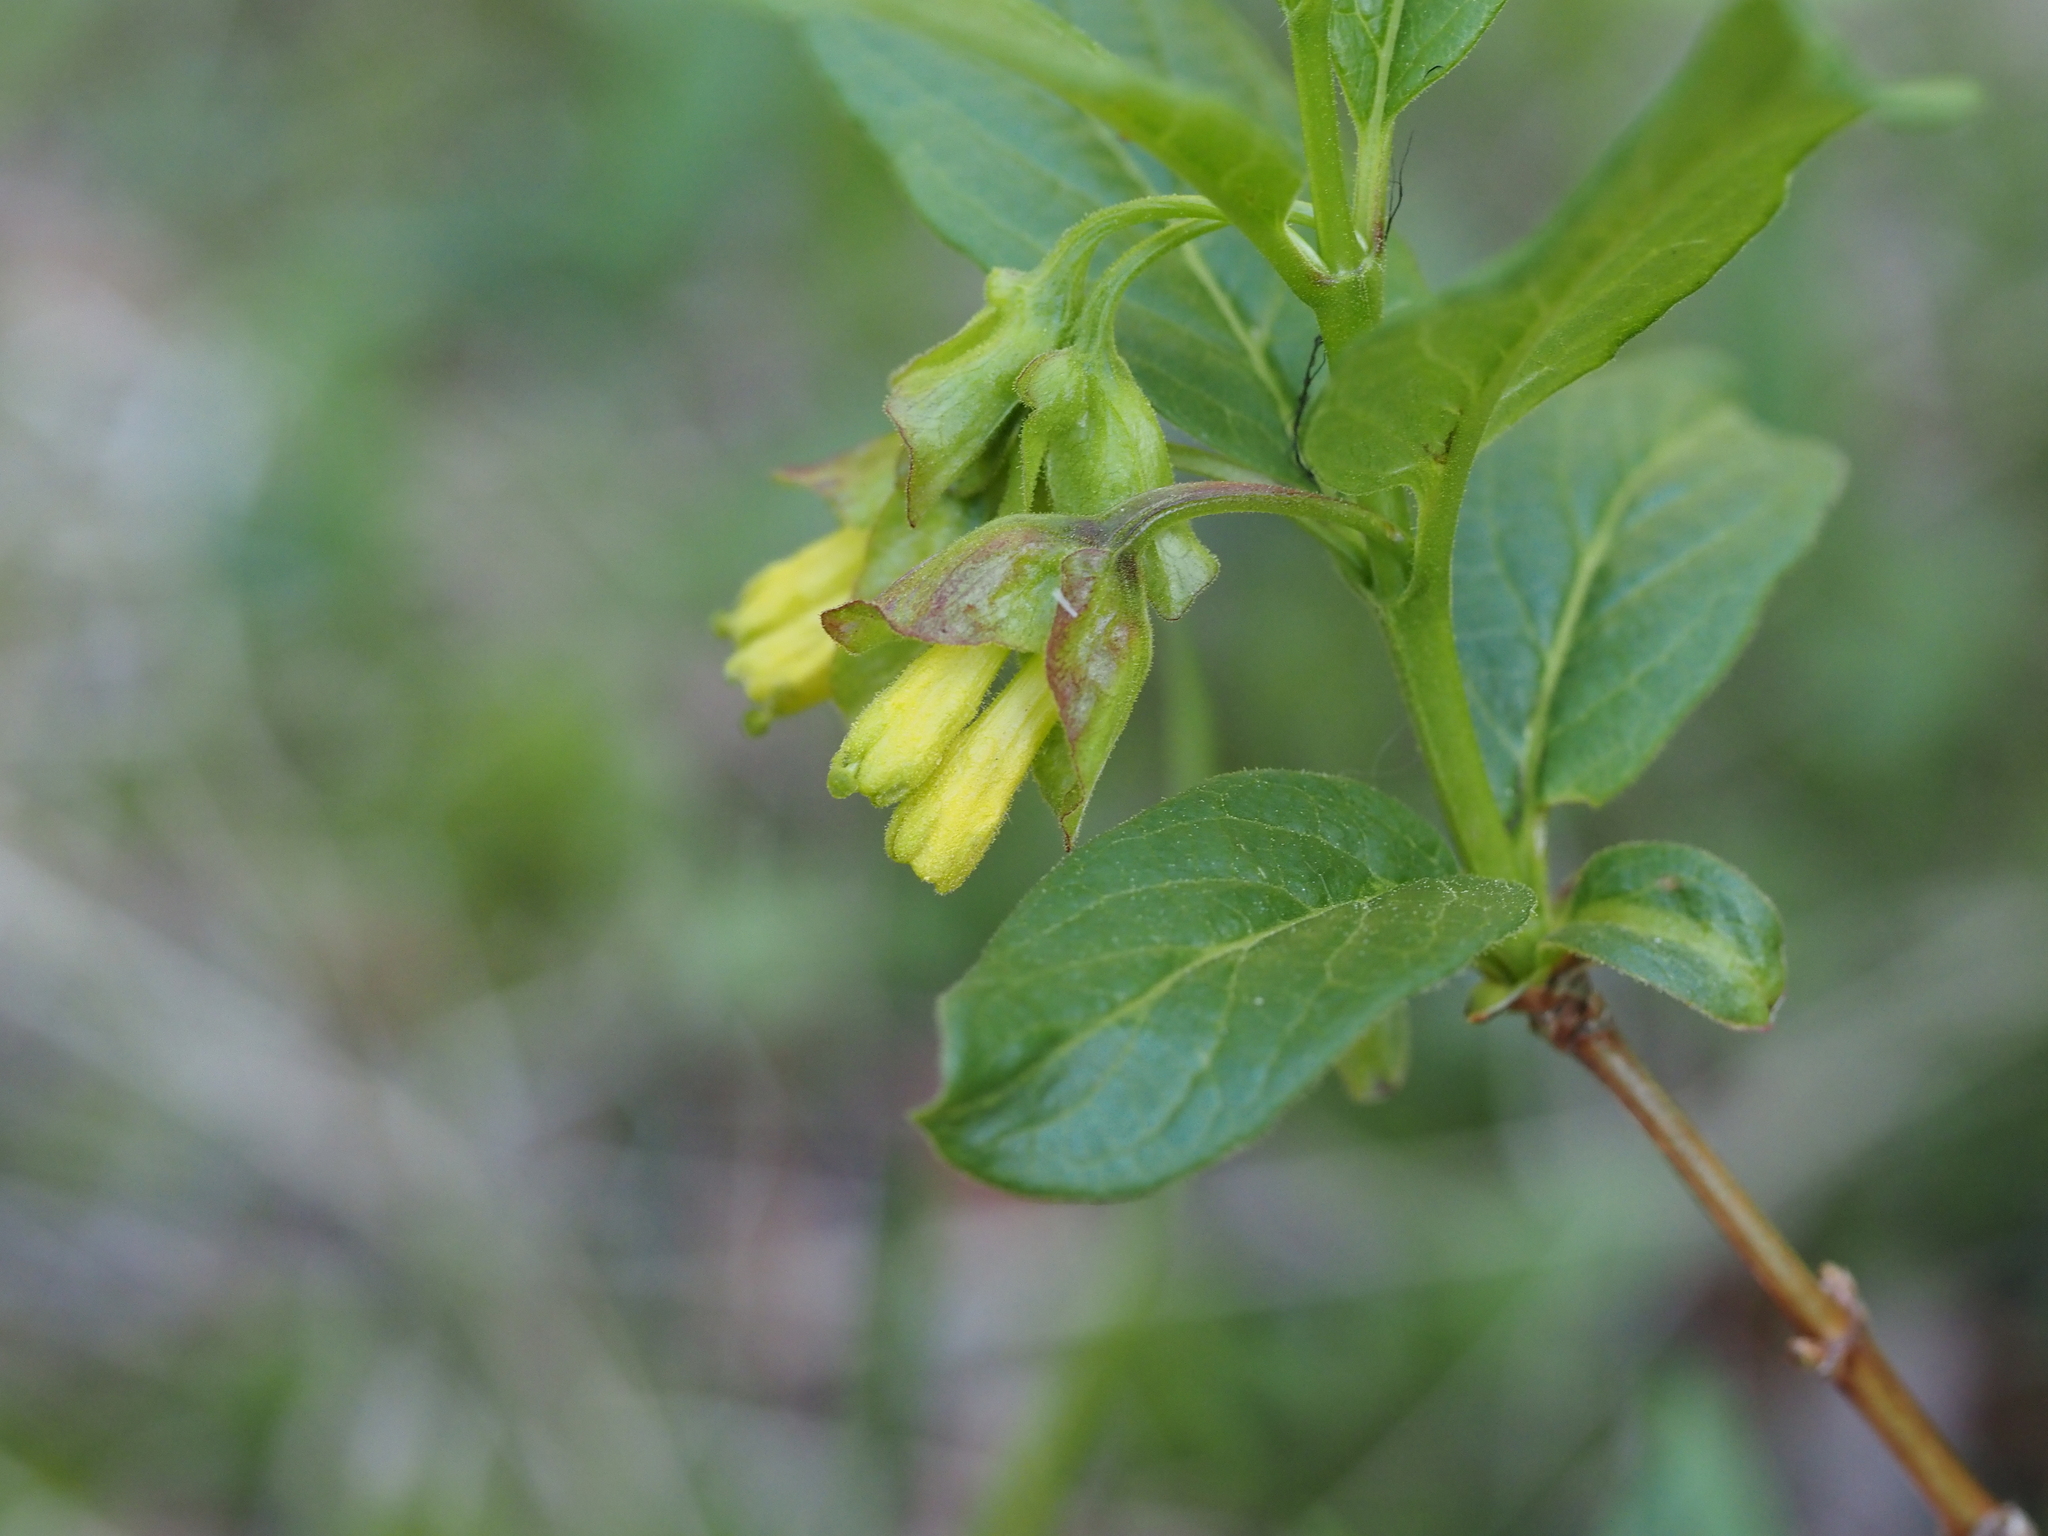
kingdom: Plantae
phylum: Tracheophyta
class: Magnoliopsida
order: Dipsacales
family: Caprifoliaceae
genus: Lonicera
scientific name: Lonicera involucrata
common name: Californian honeysuckle
